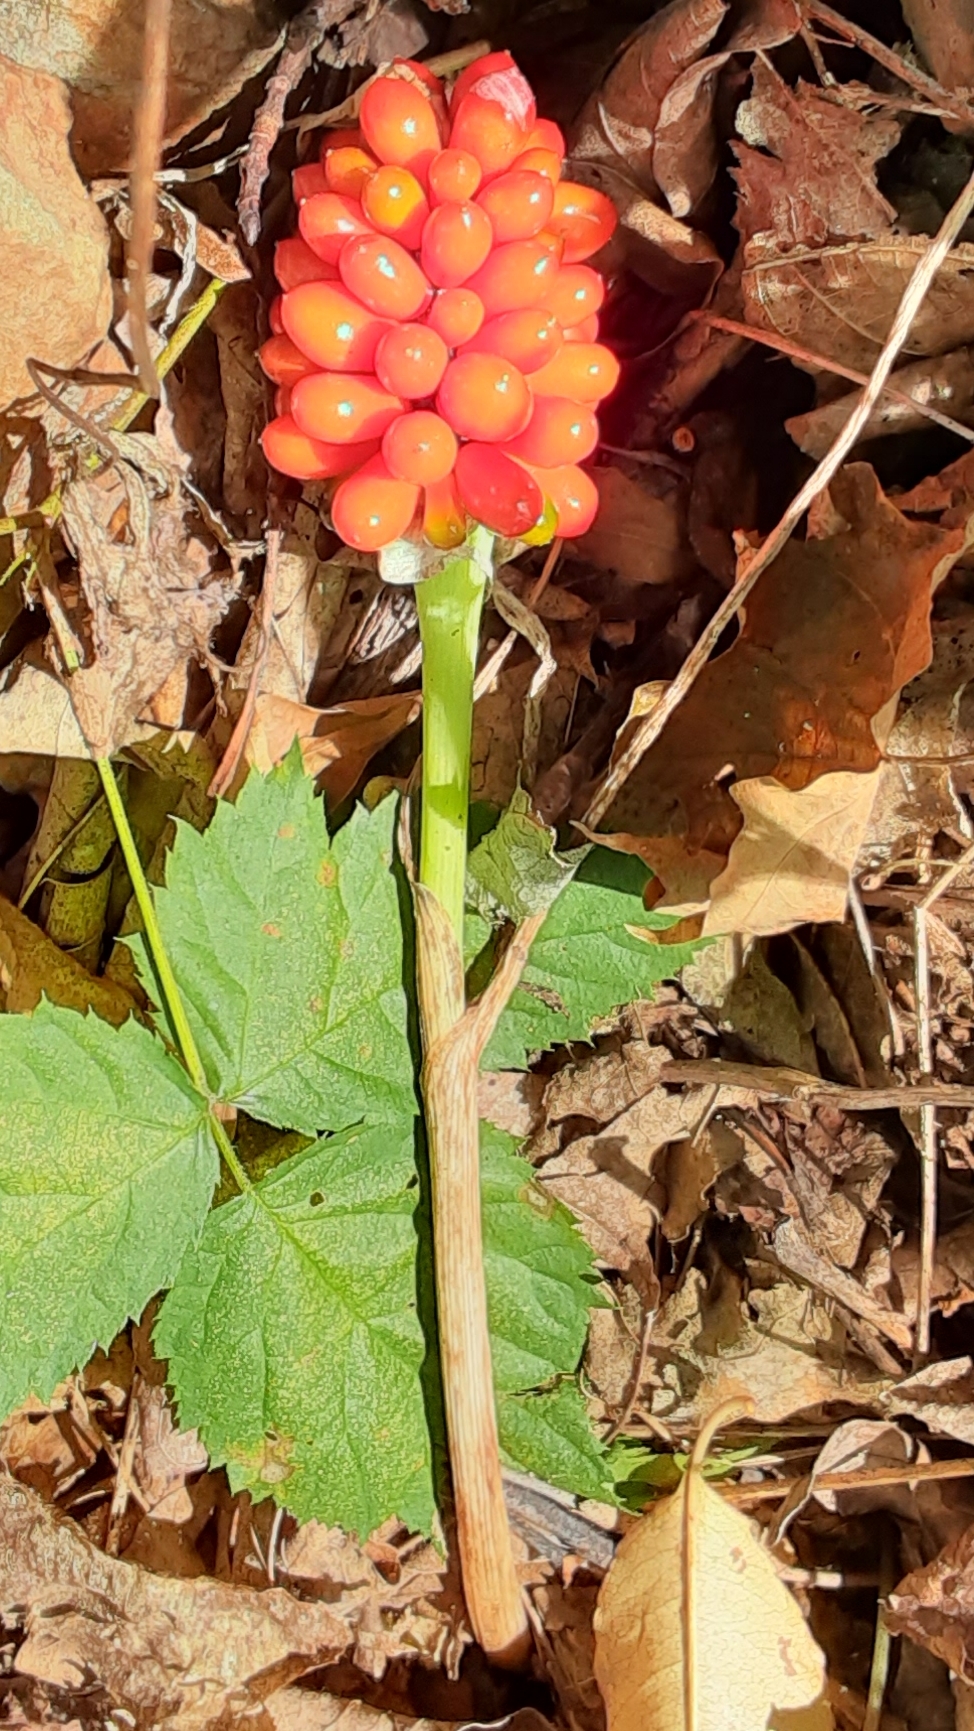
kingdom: Plantae
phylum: Tracheophyta
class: Liliopsida
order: Alismatales
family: Araceae
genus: Arisaema
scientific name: Arisaema triphyllum
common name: Jack-in-the-pulpit
